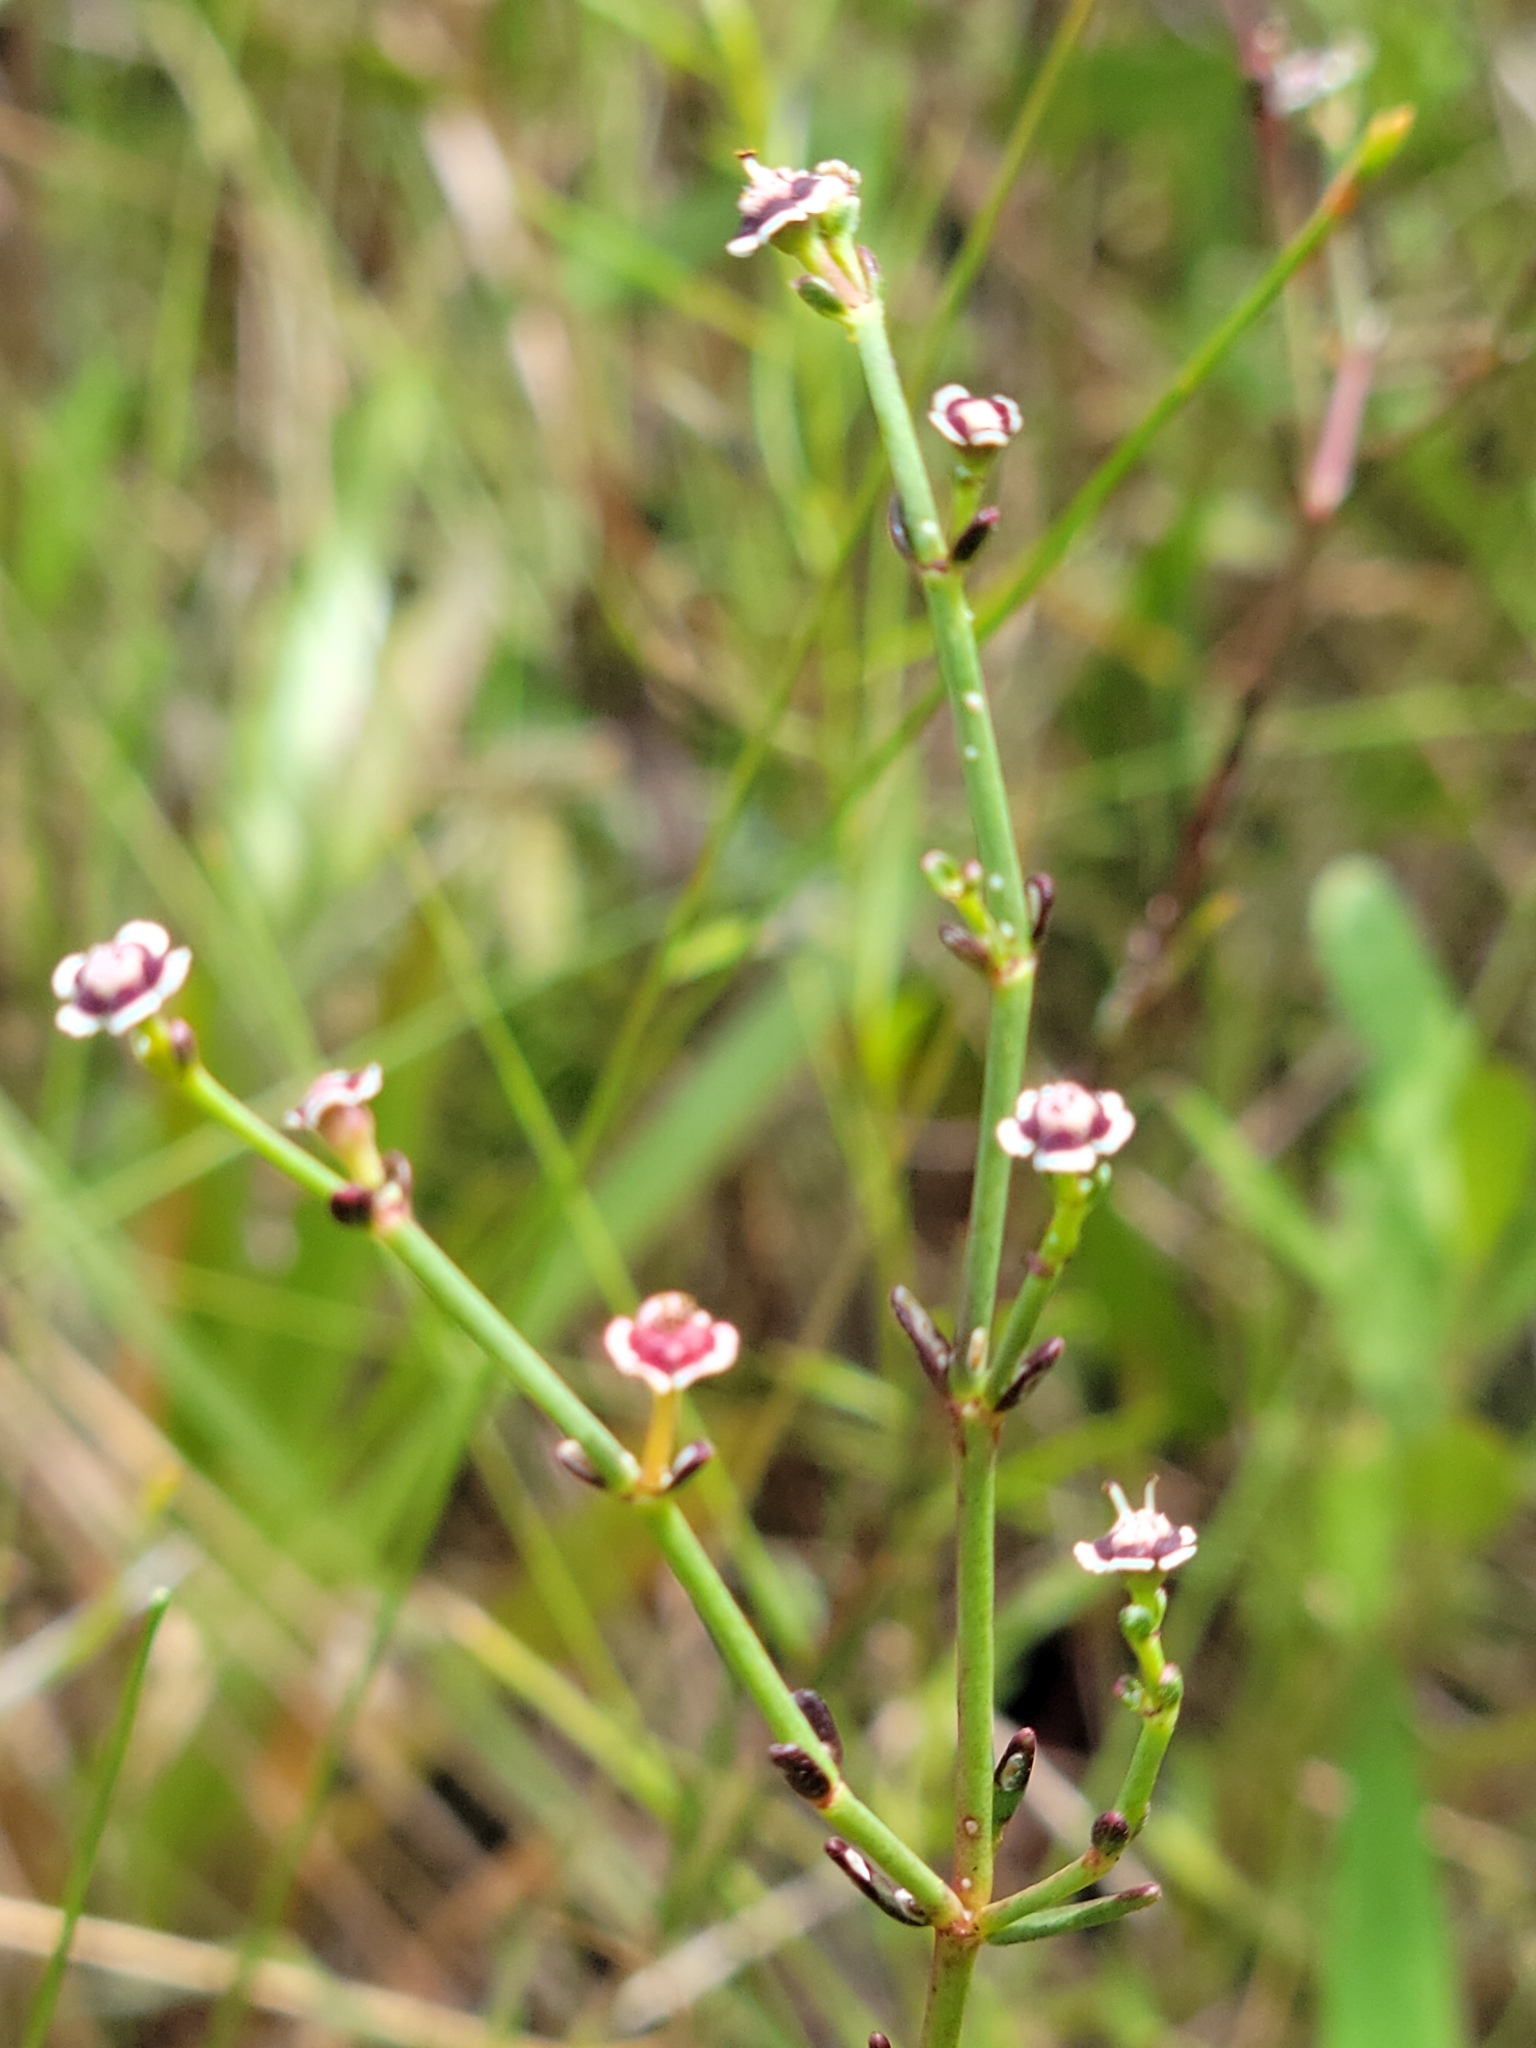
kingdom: Plantae
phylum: Tracheophyta
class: Magnoliopsida
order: Malpighiales
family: Euphorbiaceae
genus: Euphorbia
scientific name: Euphorbia polyphylla
